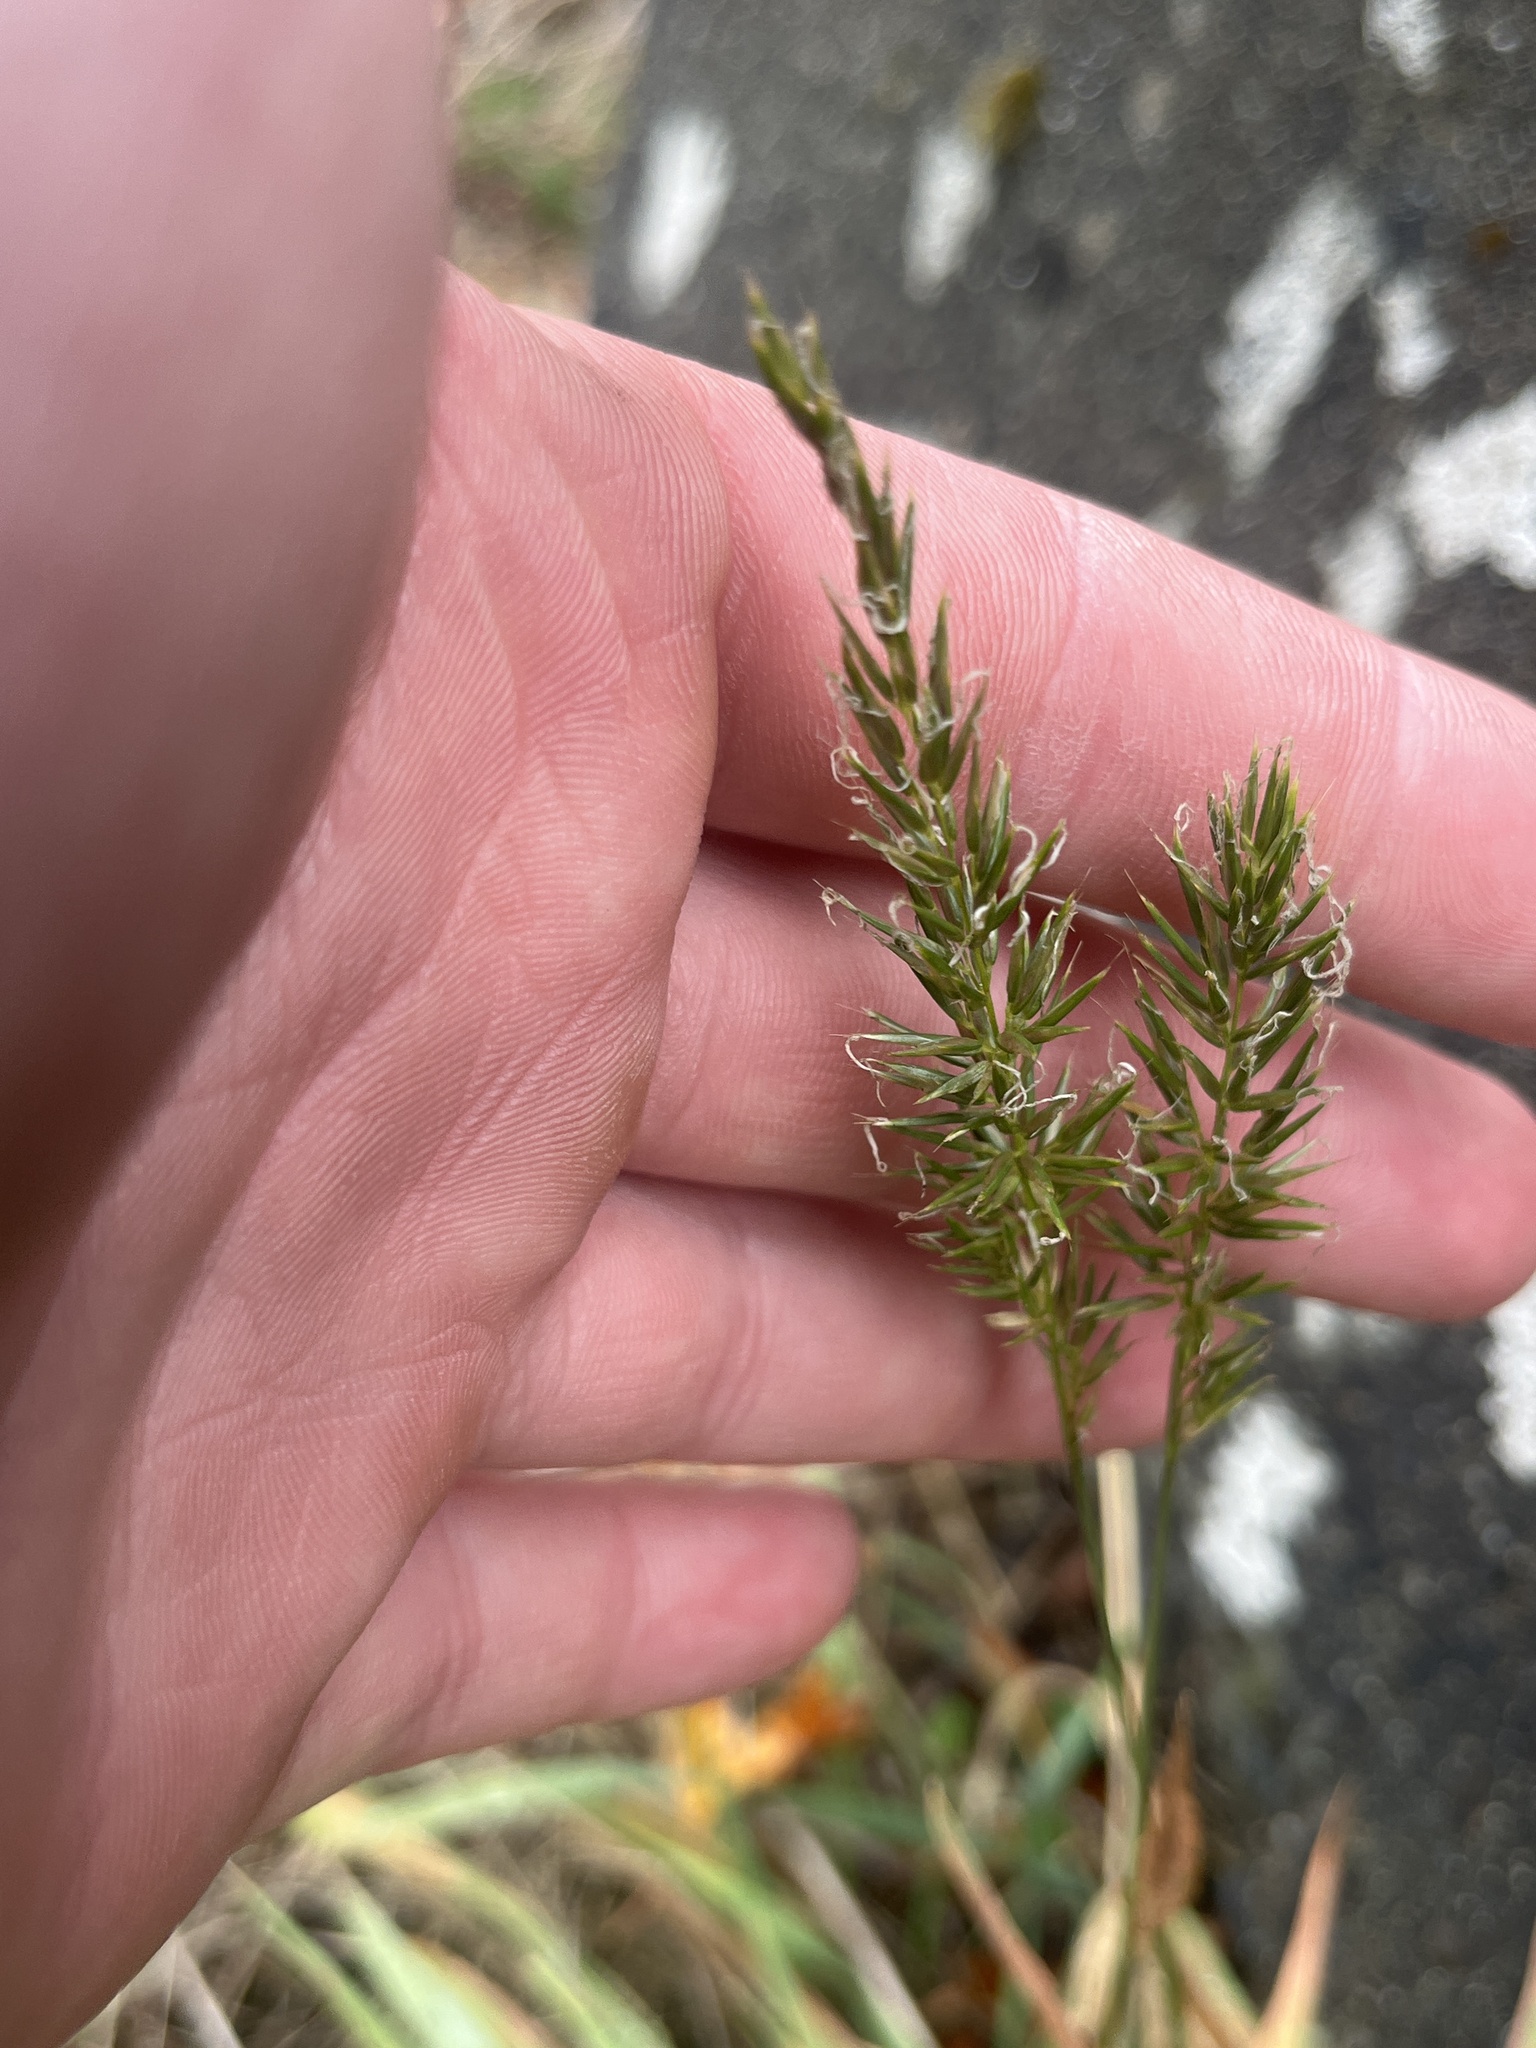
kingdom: Plantae
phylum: Tracheophyta
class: Liliopsida
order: Poales
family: Poaceae
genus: Anthoxanthum
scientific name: Anthoxanthum odoratum
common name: Sweet vernalgrass
